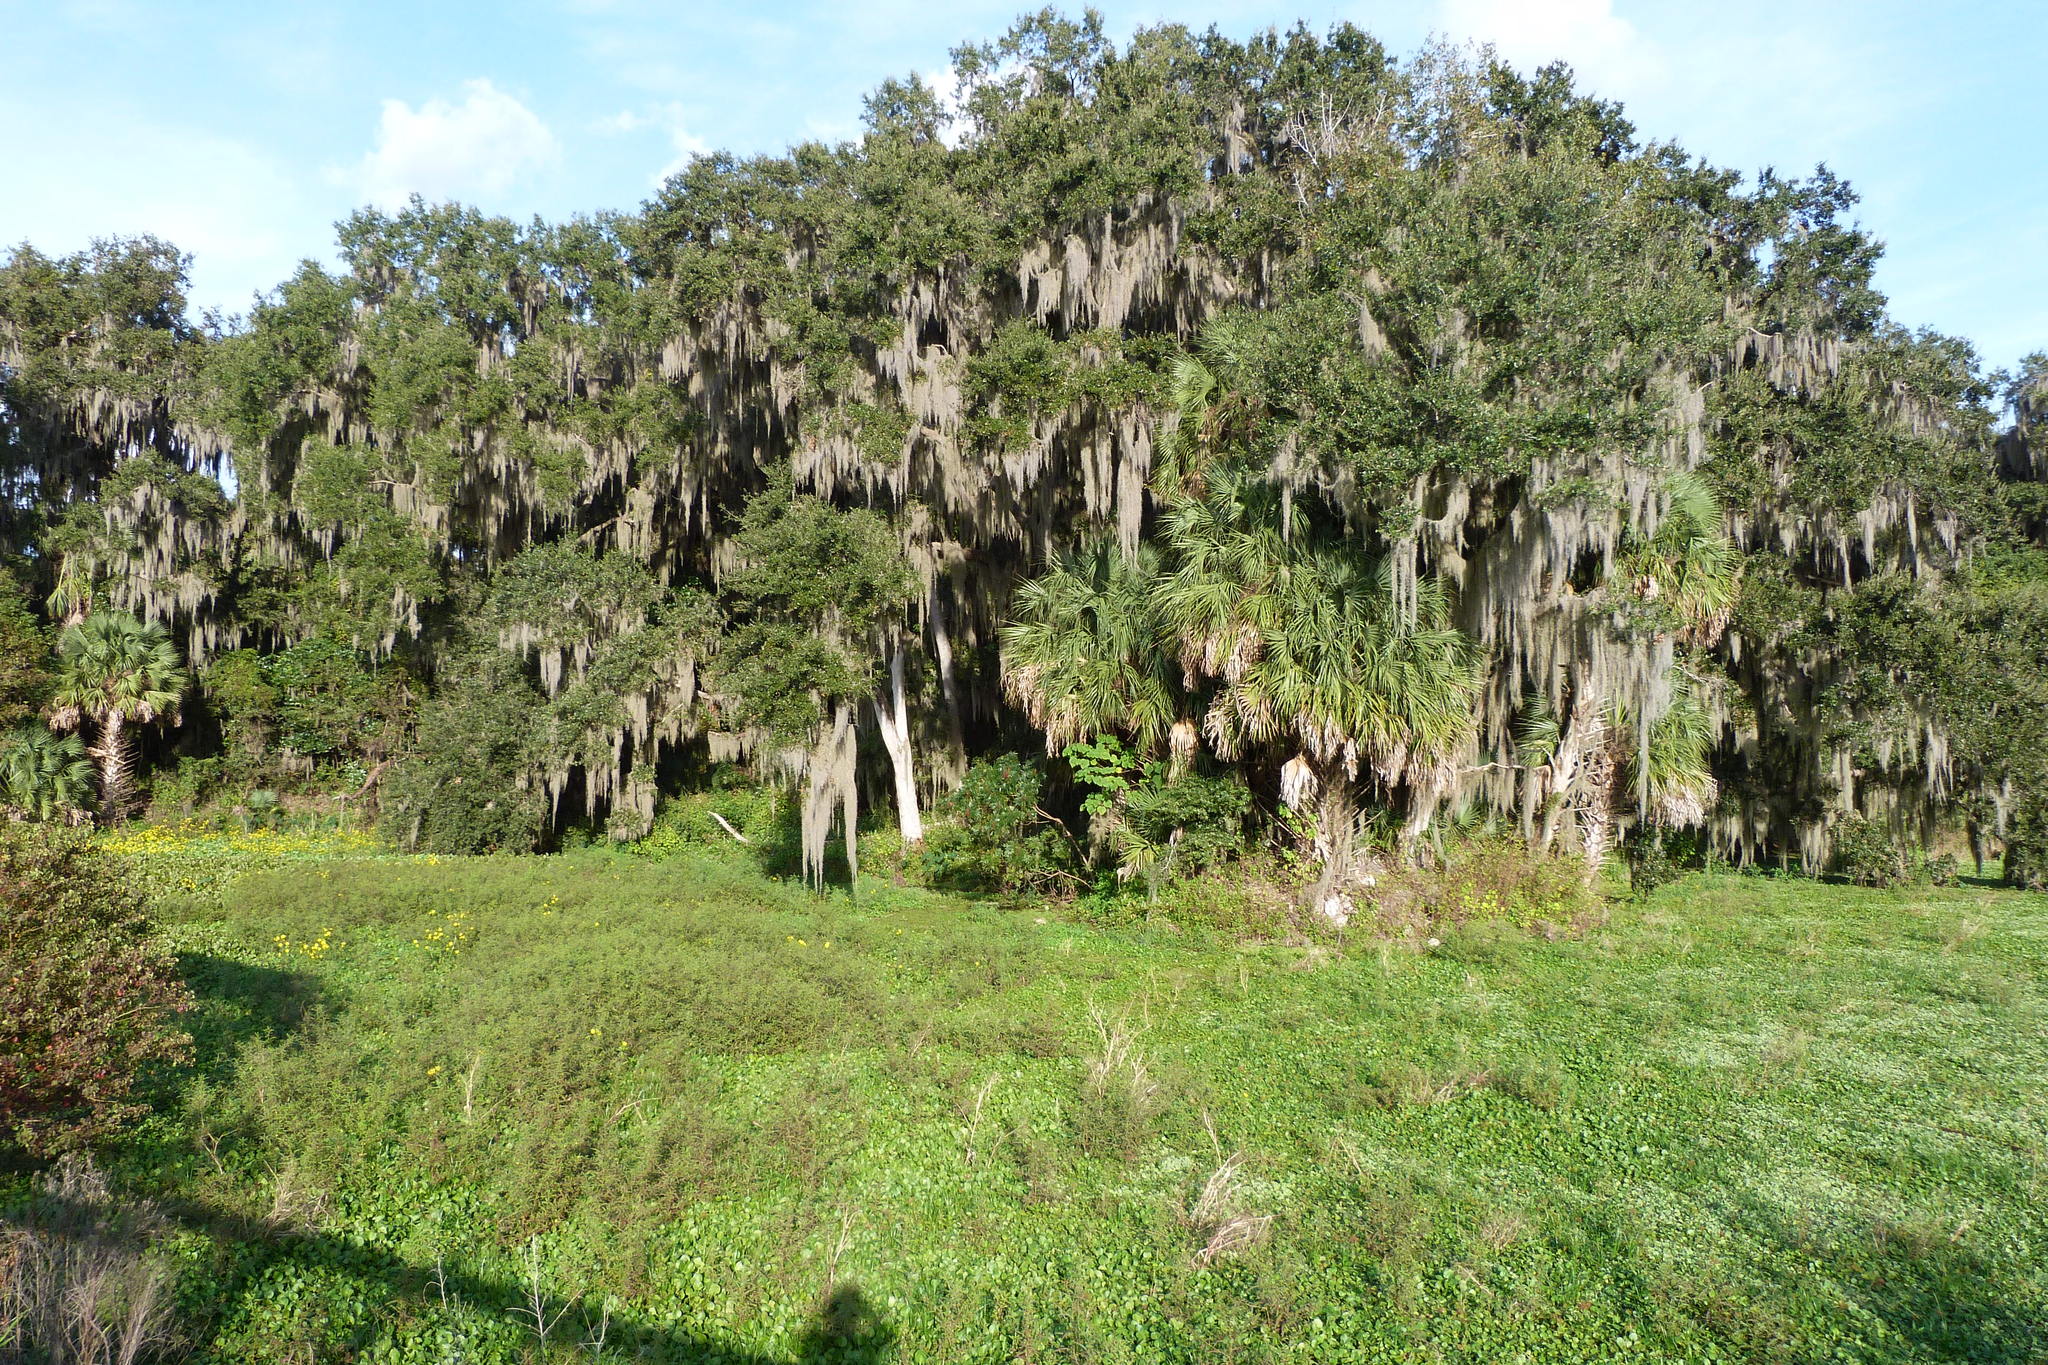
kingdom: Plantae
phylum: Tracheophyta
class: Magnoliopsida
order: Fagales
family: Fagaceae
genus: Quercus
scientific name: Quercus virginiana
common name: Southern live oak
